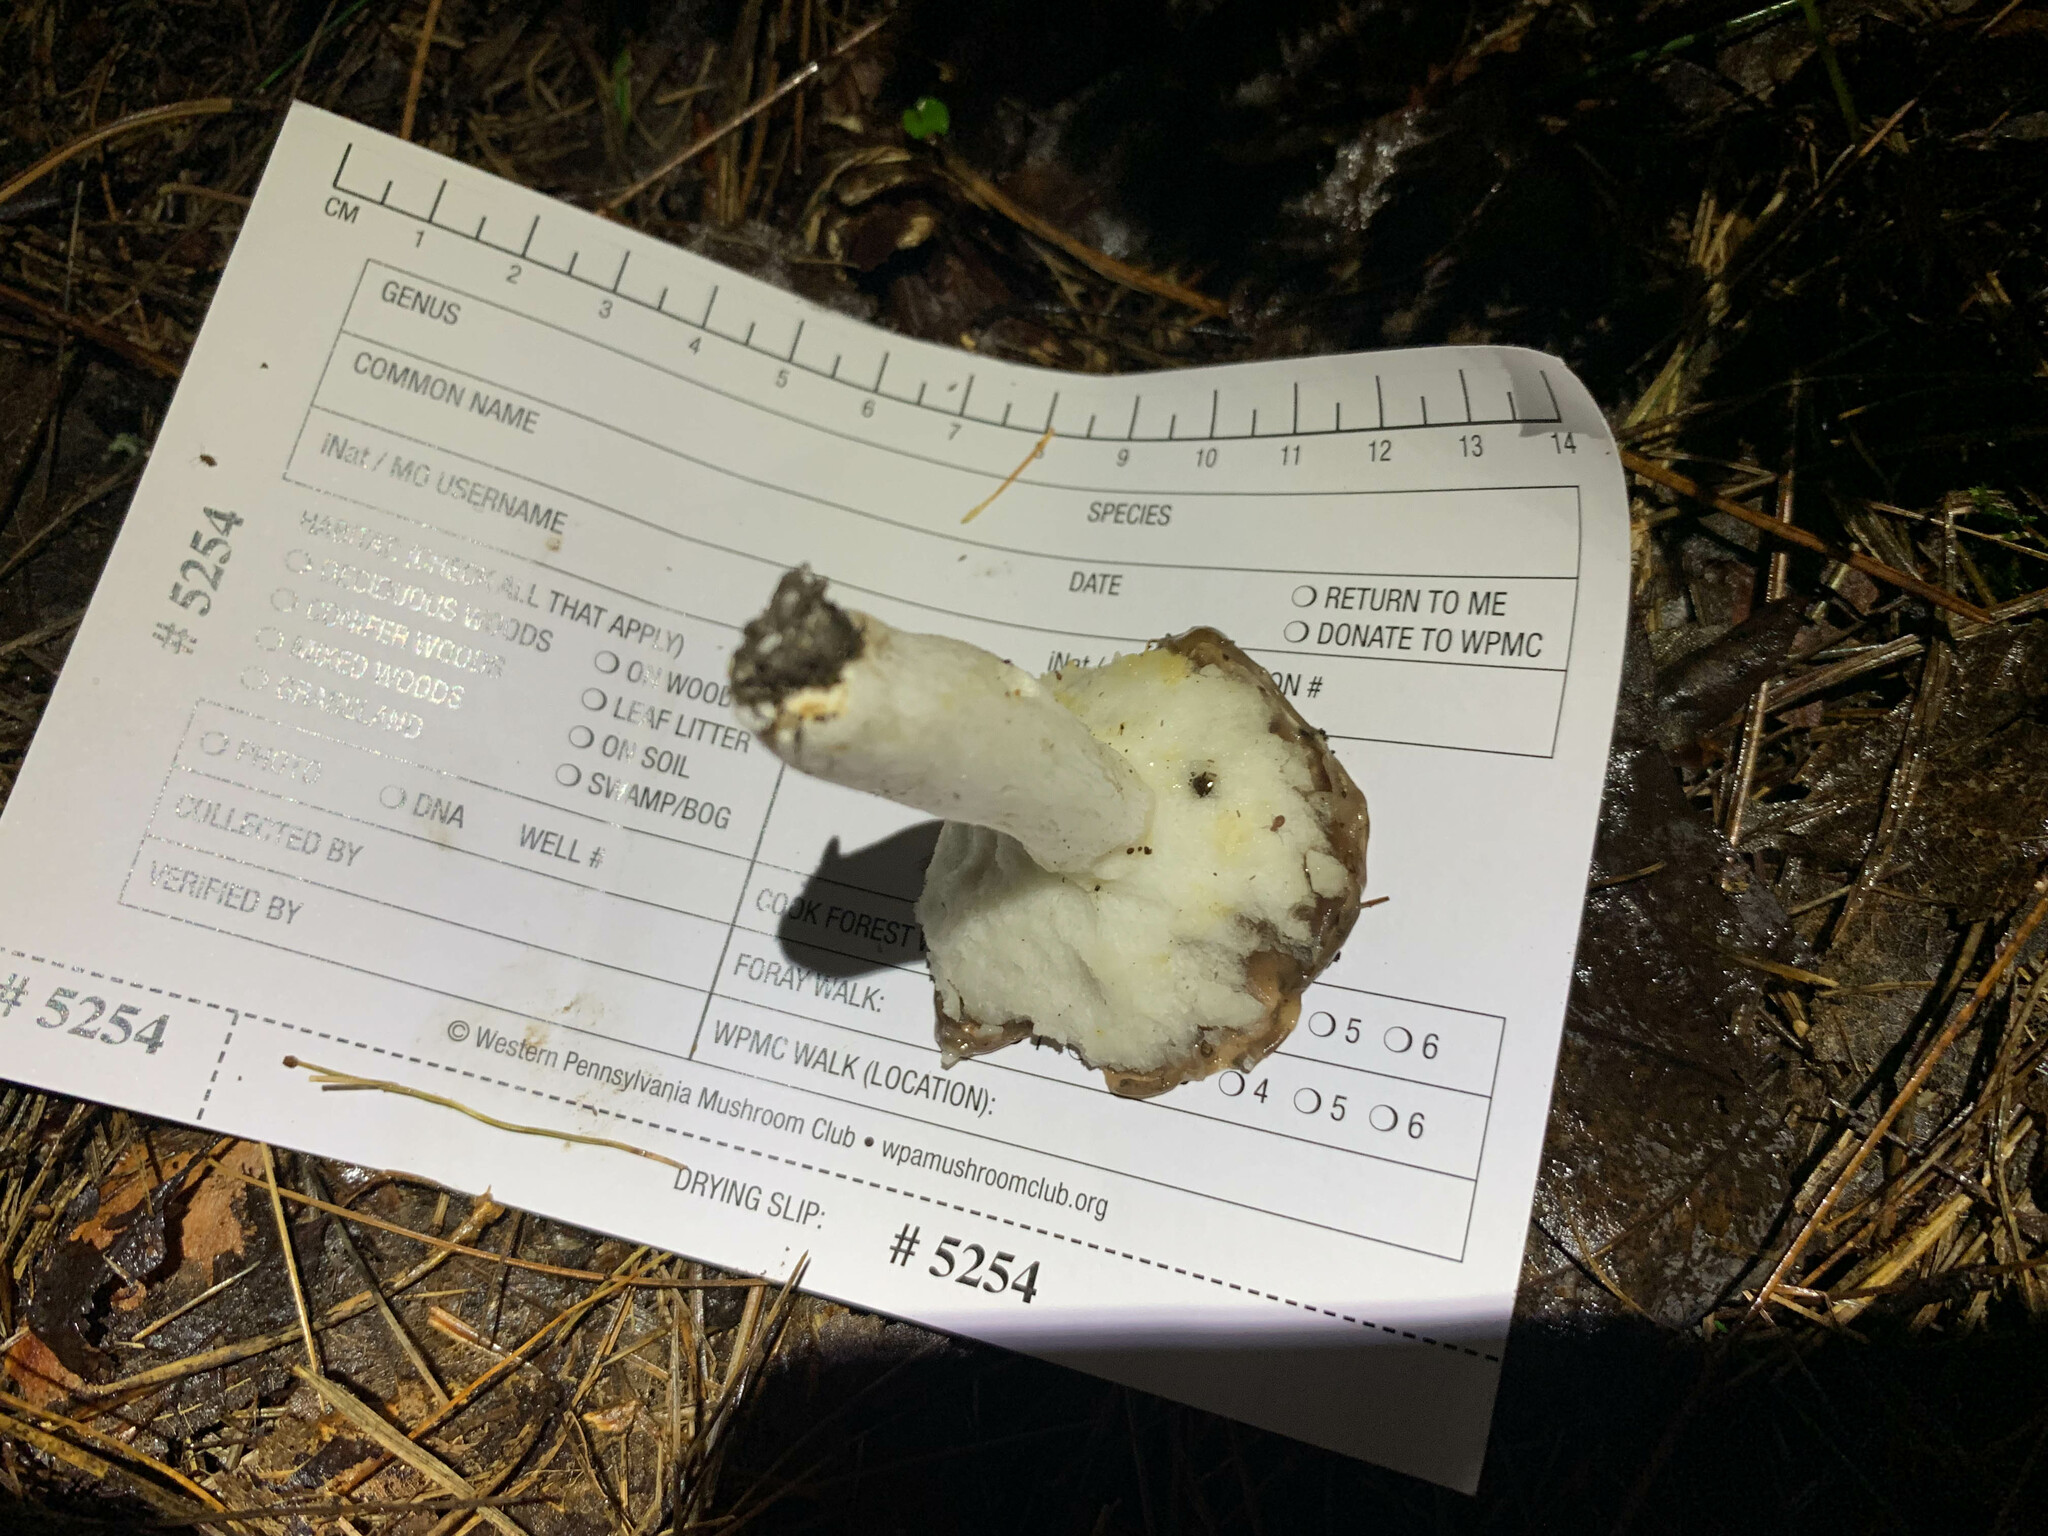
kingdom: Fungi
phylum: Basidiomycota
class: Agaricomycetes
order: Russulales
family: Russulaceae
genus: Russula
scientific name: Russula vesca
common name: Bare-toothed russula
